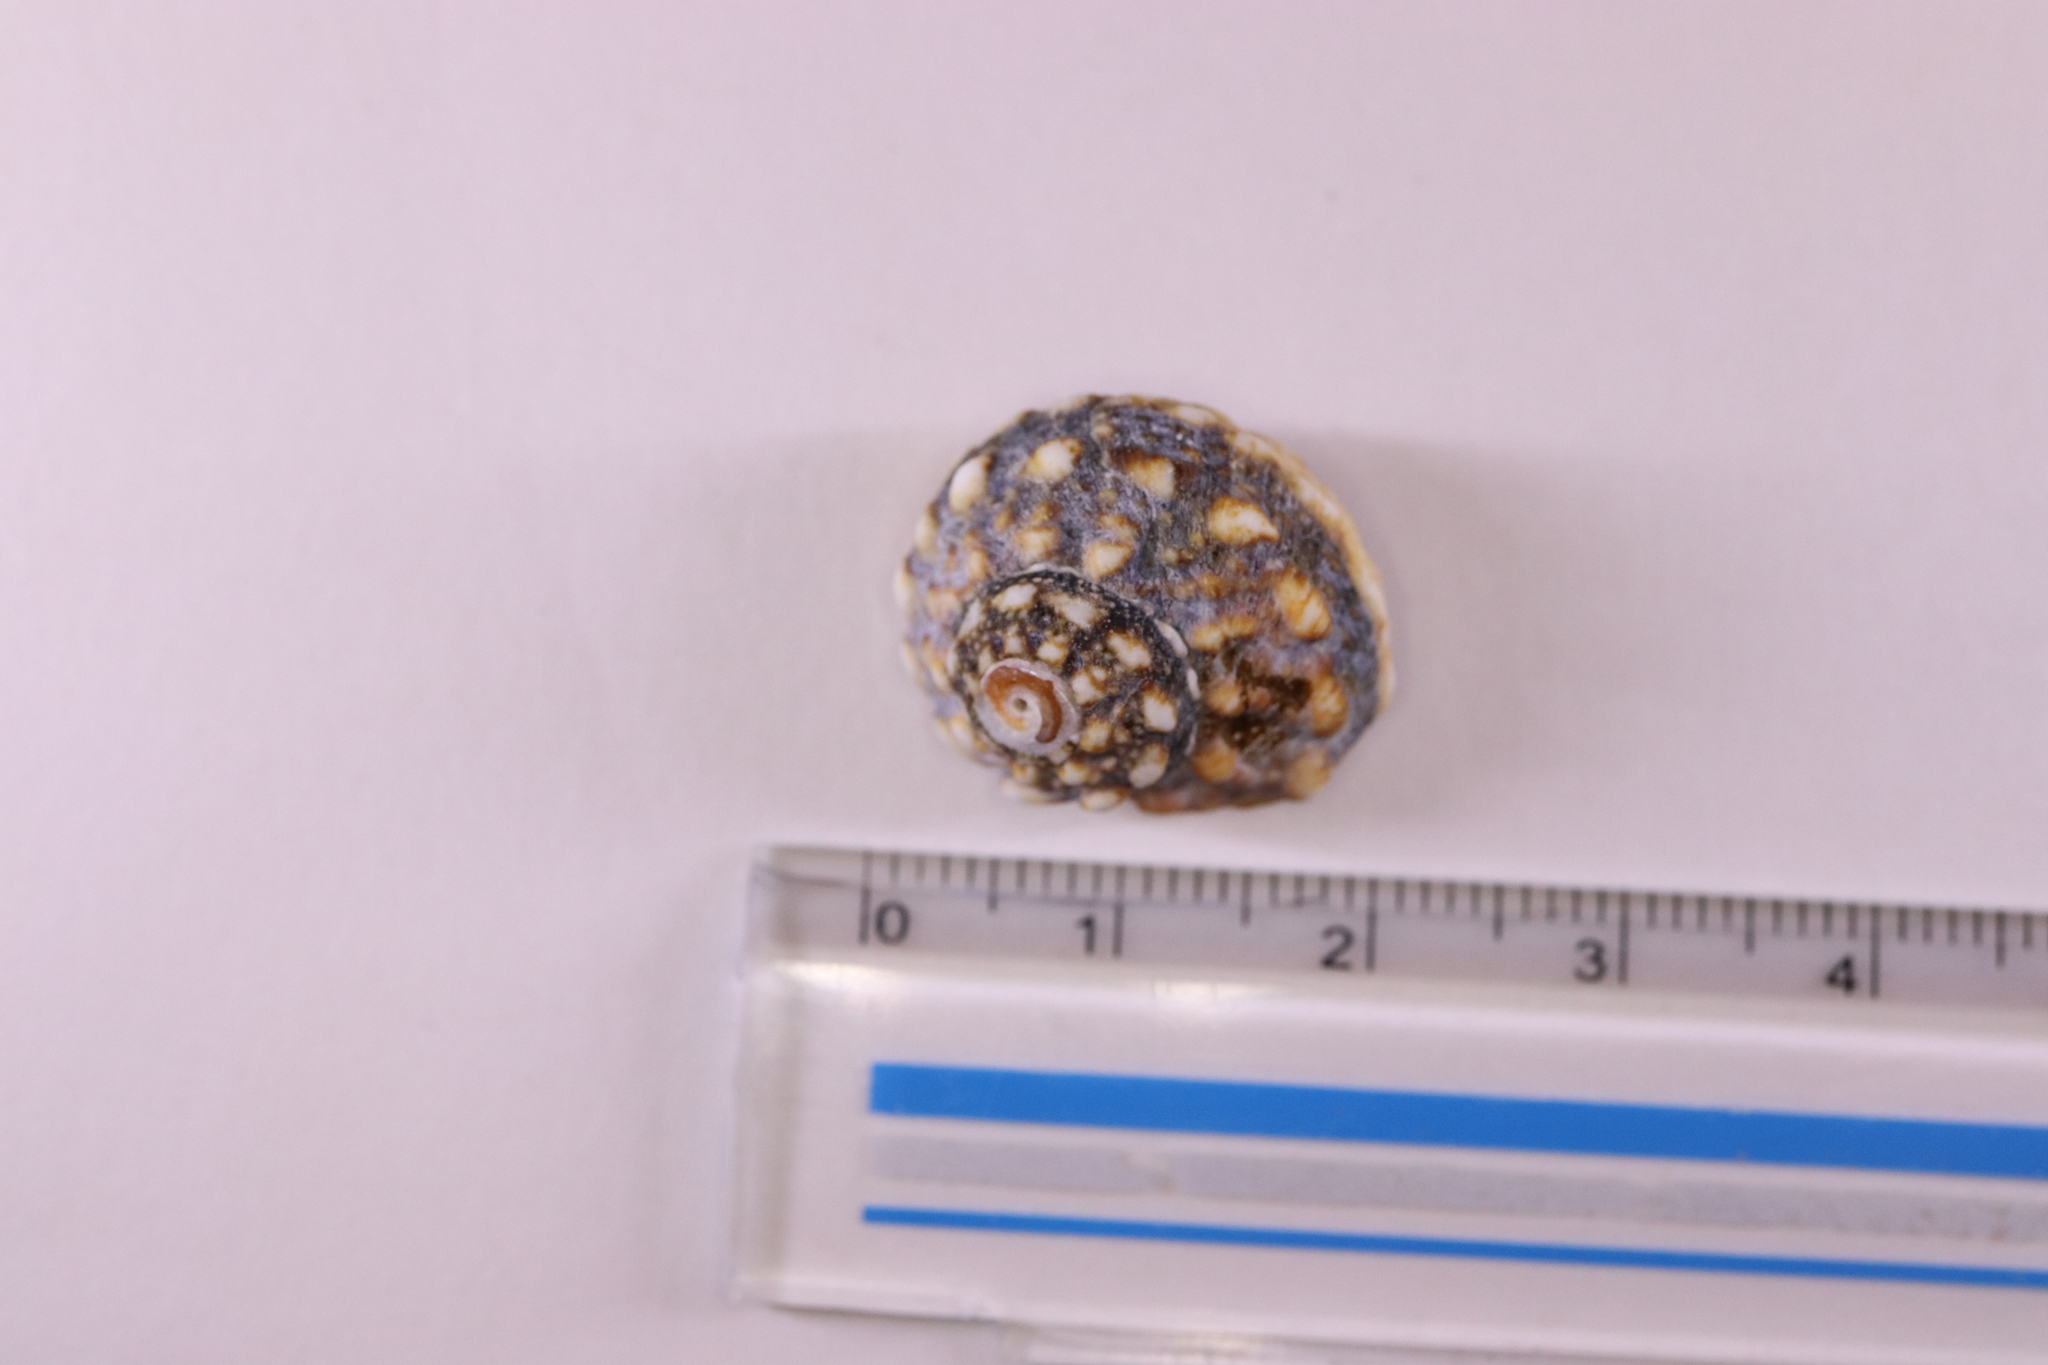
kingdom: Animalia
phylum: Mollusca
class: Gastropoda
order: Trochida
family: Turbinidae
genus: Lunella
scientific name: Lunella correensis
